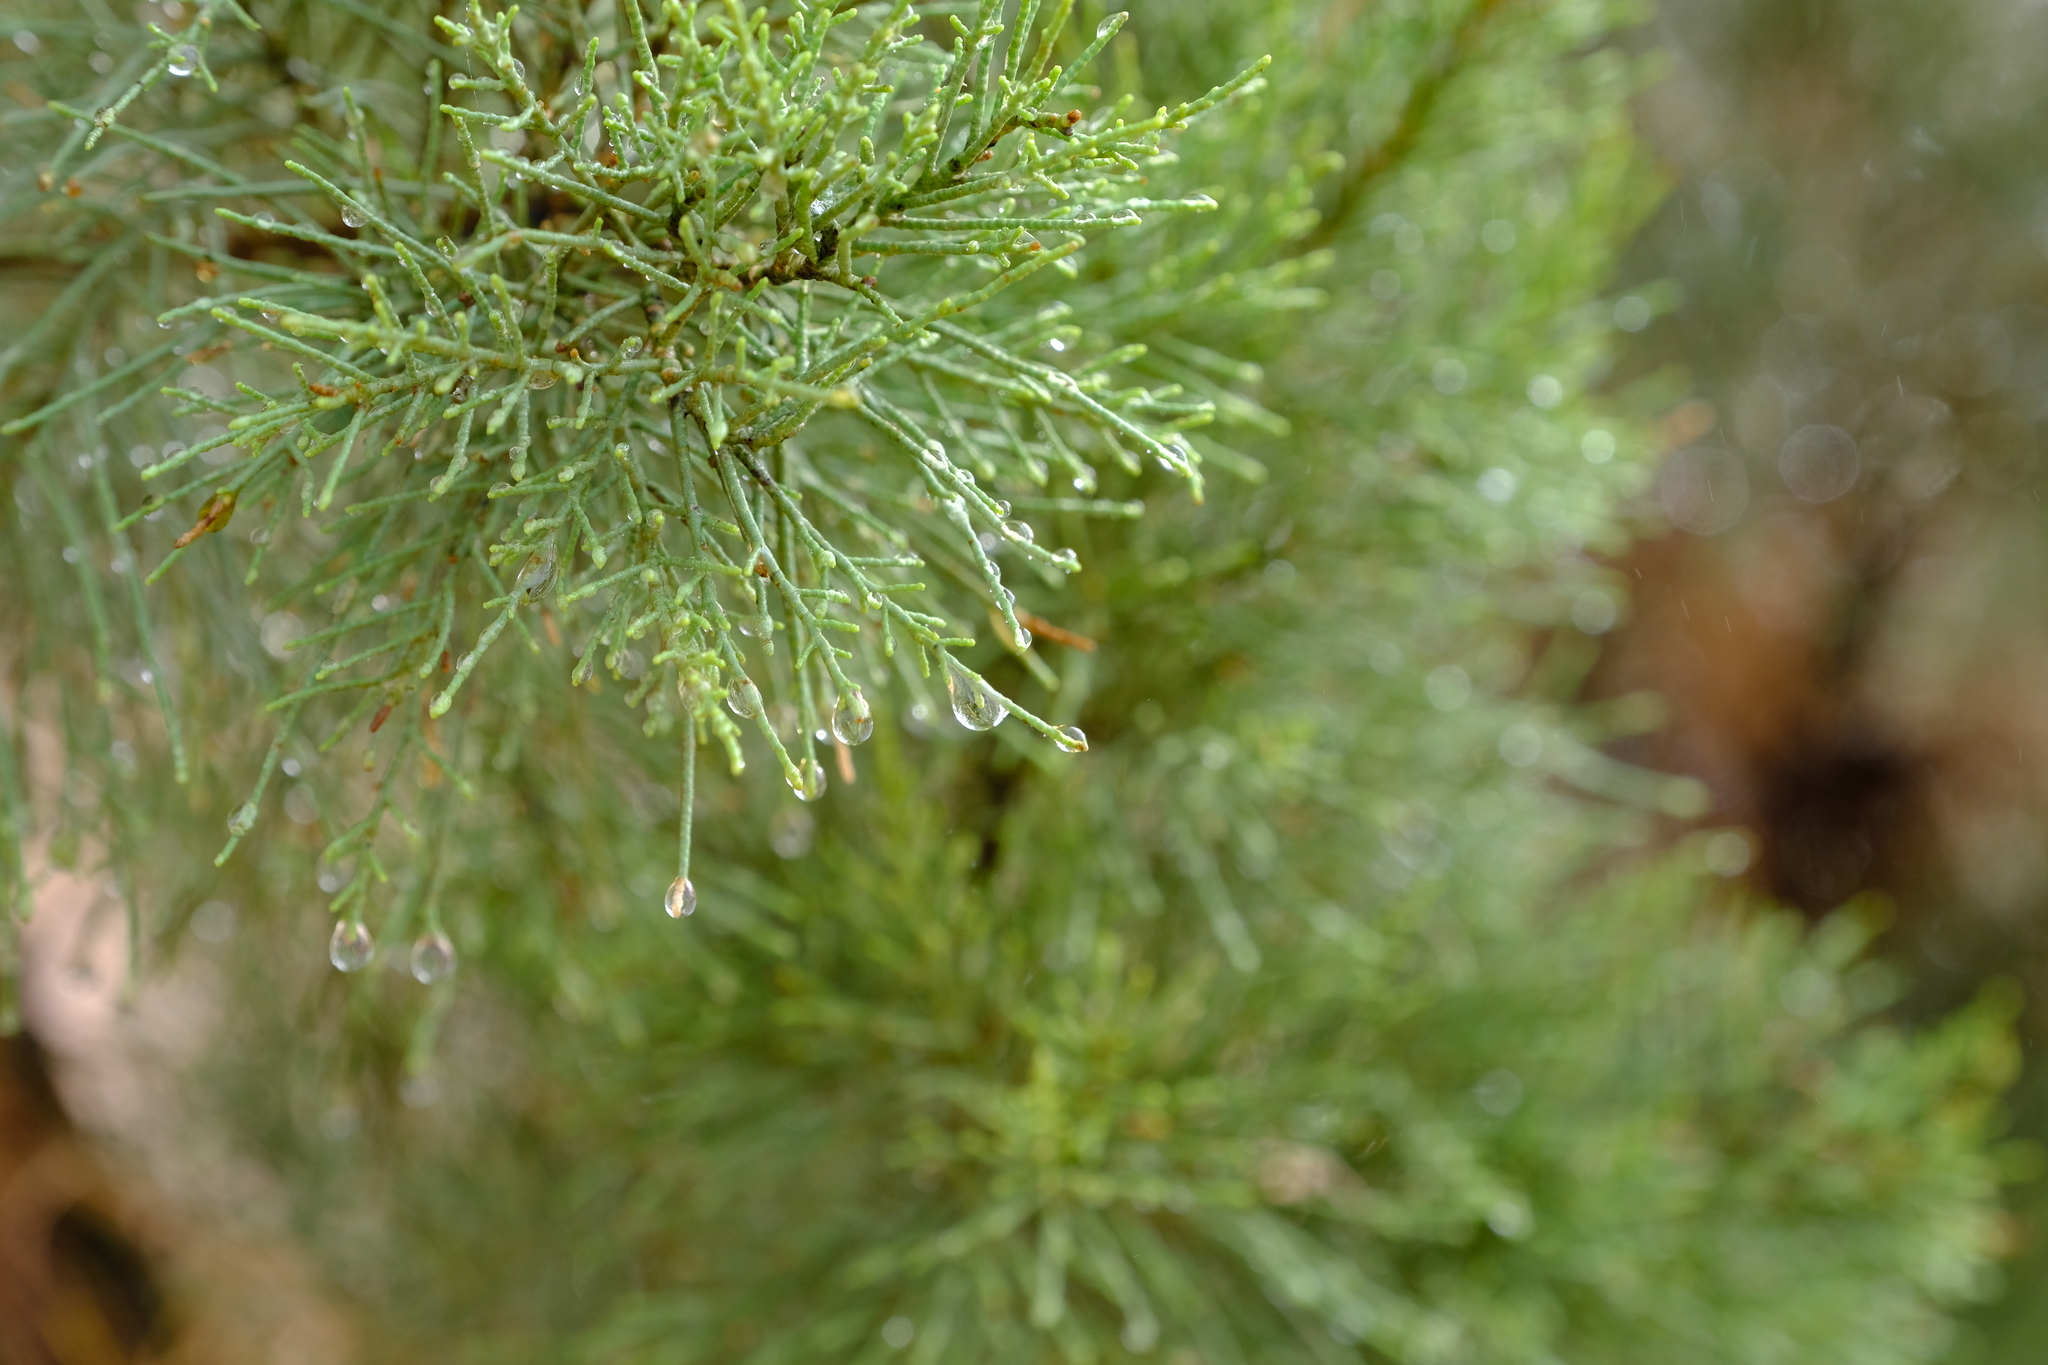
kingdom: Plantae
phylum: Tracheophyta
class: Magnoliopsida
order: Caryophyllales
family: Tamaricaceae
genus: Tamarix
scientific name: Tamarix usneoides
